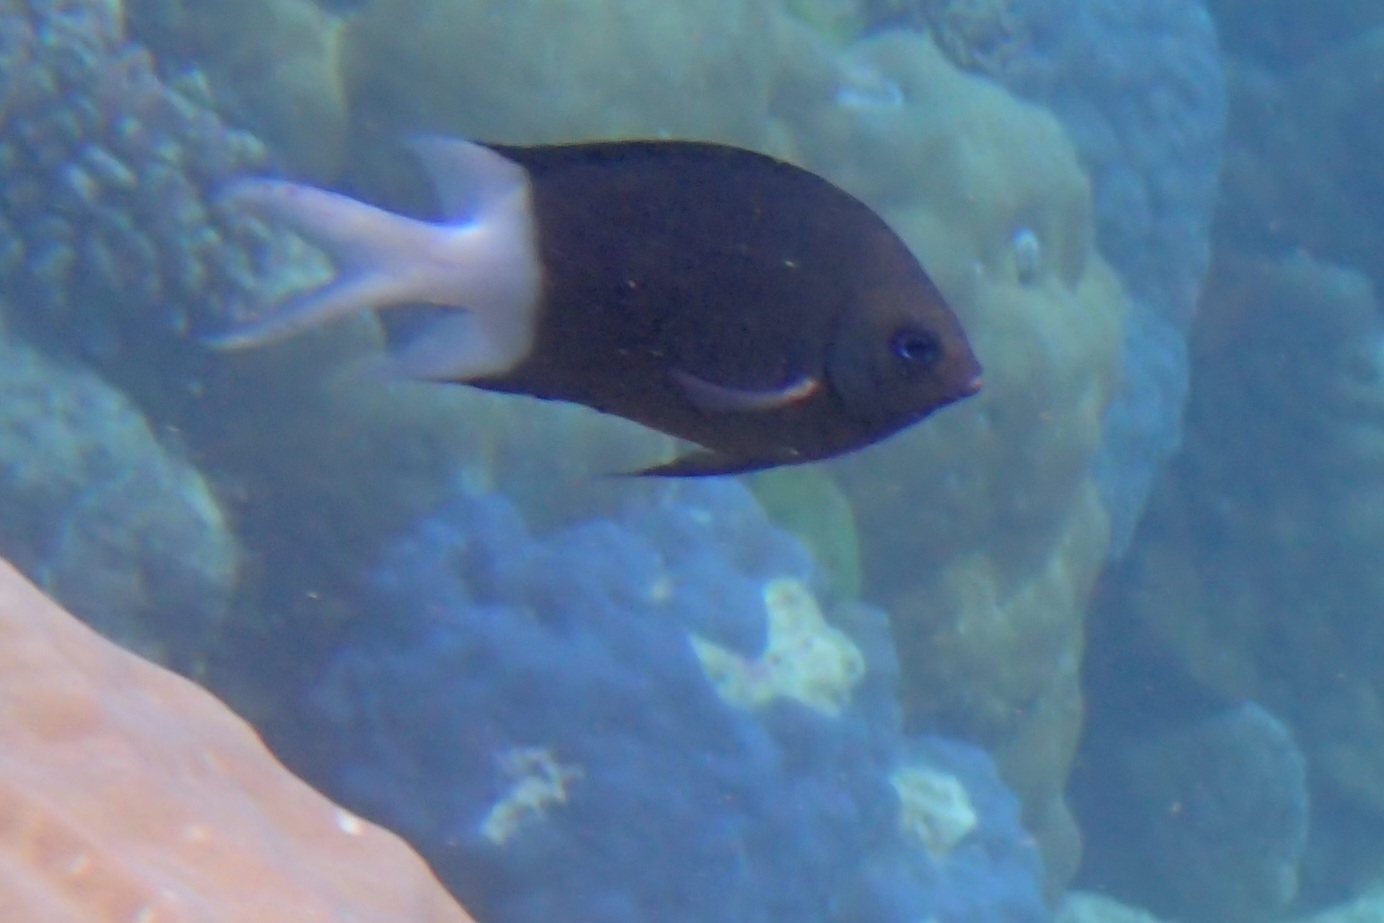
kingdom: Animalia
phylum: Chordata
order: Perciformes
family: Pomacentridae
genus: Acanthochromis
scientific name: Acanthochromis polyacanthus
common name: Spiny chromis
